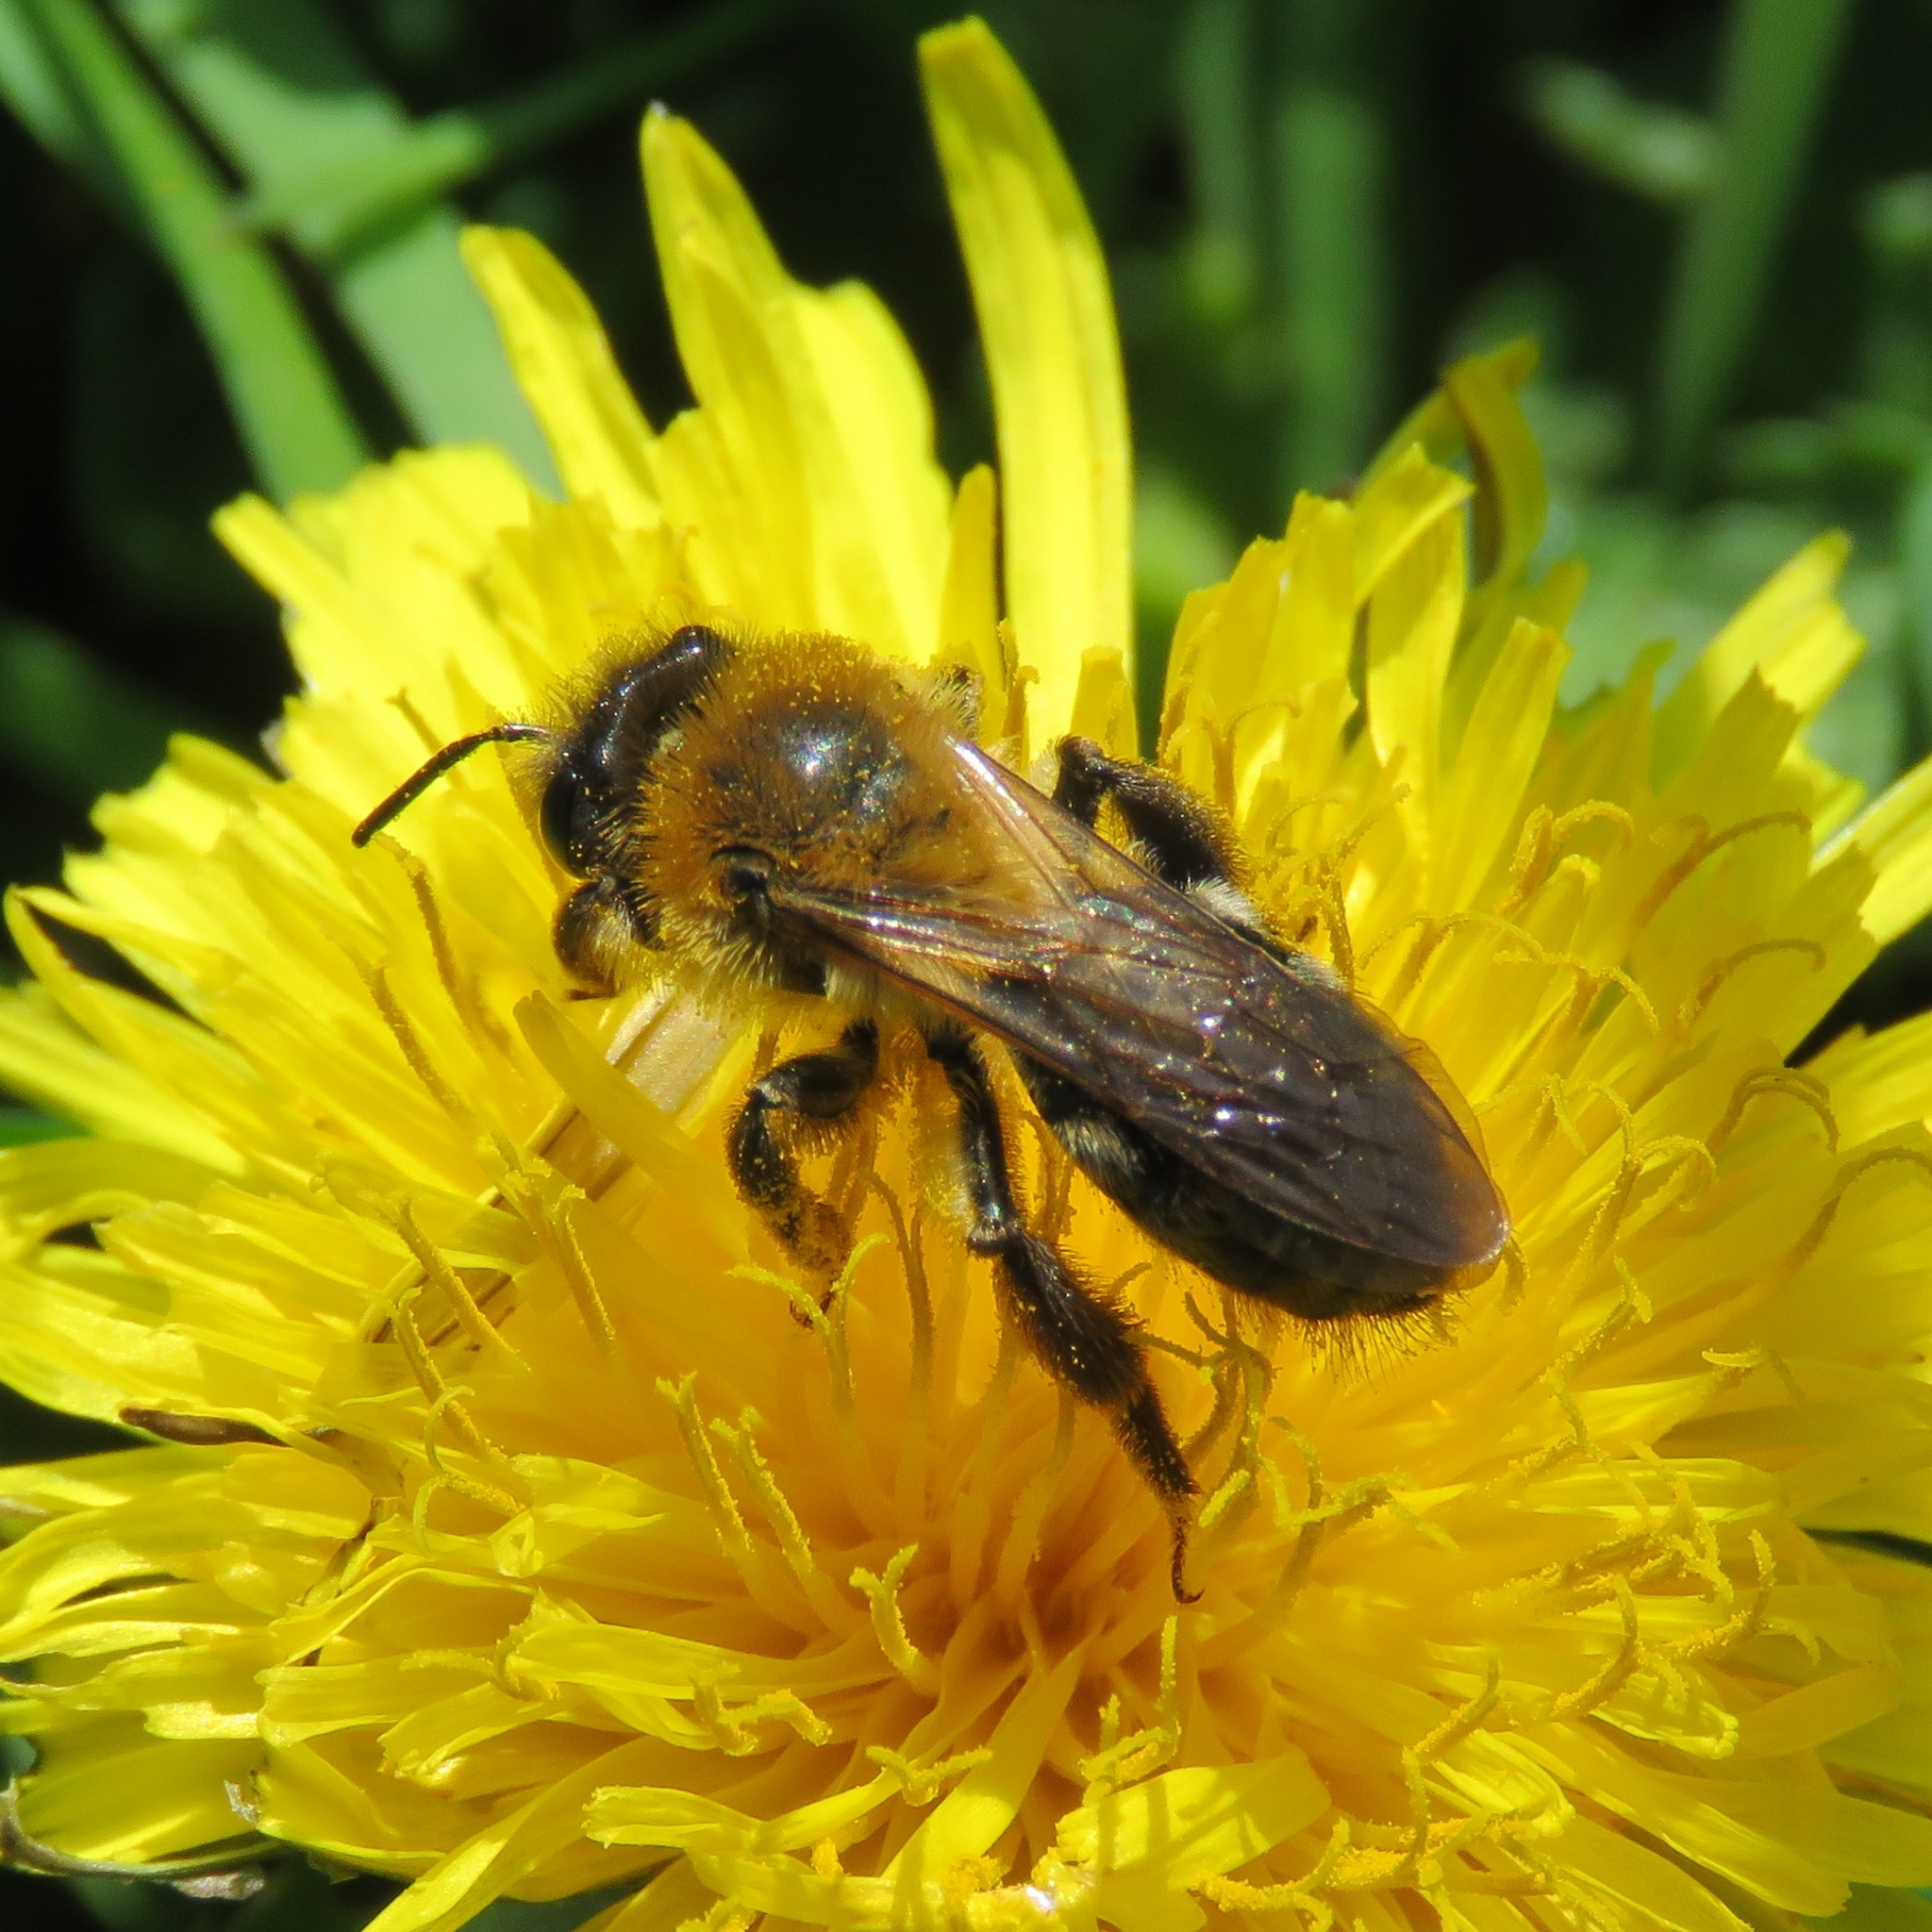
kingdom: Animalia
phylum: Arthropoda
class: Insecta
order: Hymenoptera
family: Andrenidae
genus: Andrena
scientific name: Andrena nitida
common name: Grey-patched mining bee
